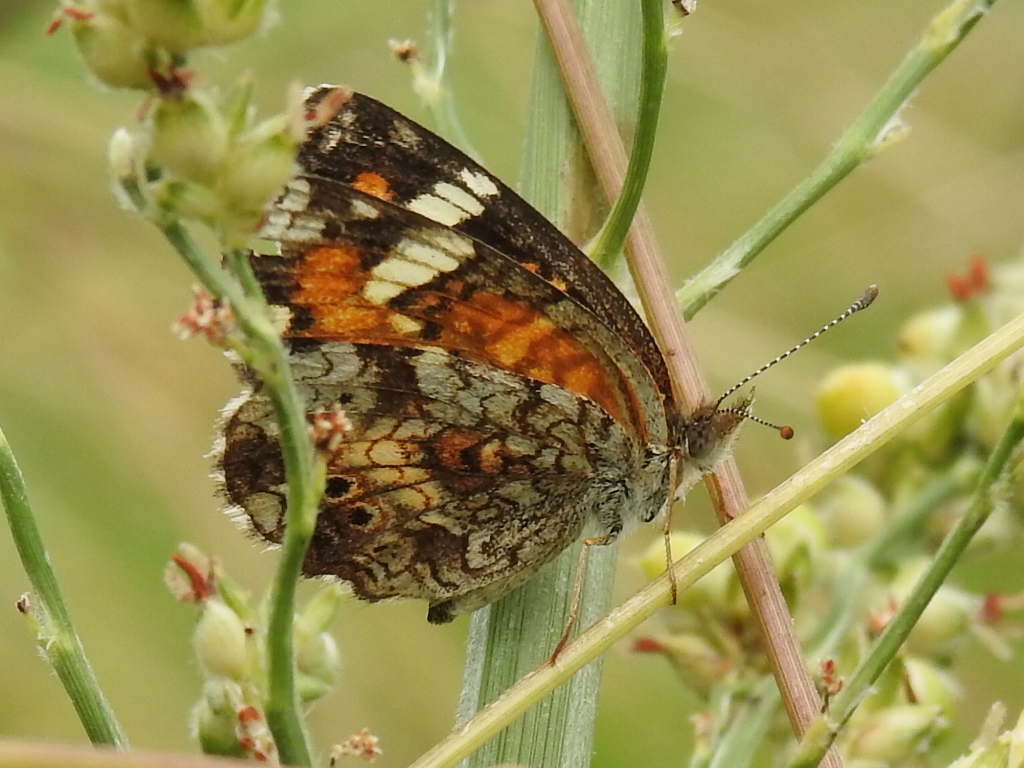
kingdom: Animalia
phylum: Arthropoda
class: Insecta
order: Lepidoptera
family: Nymphalidae
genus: Phyciodes
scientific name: Phyciodes phaon
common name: Phaon crescent
